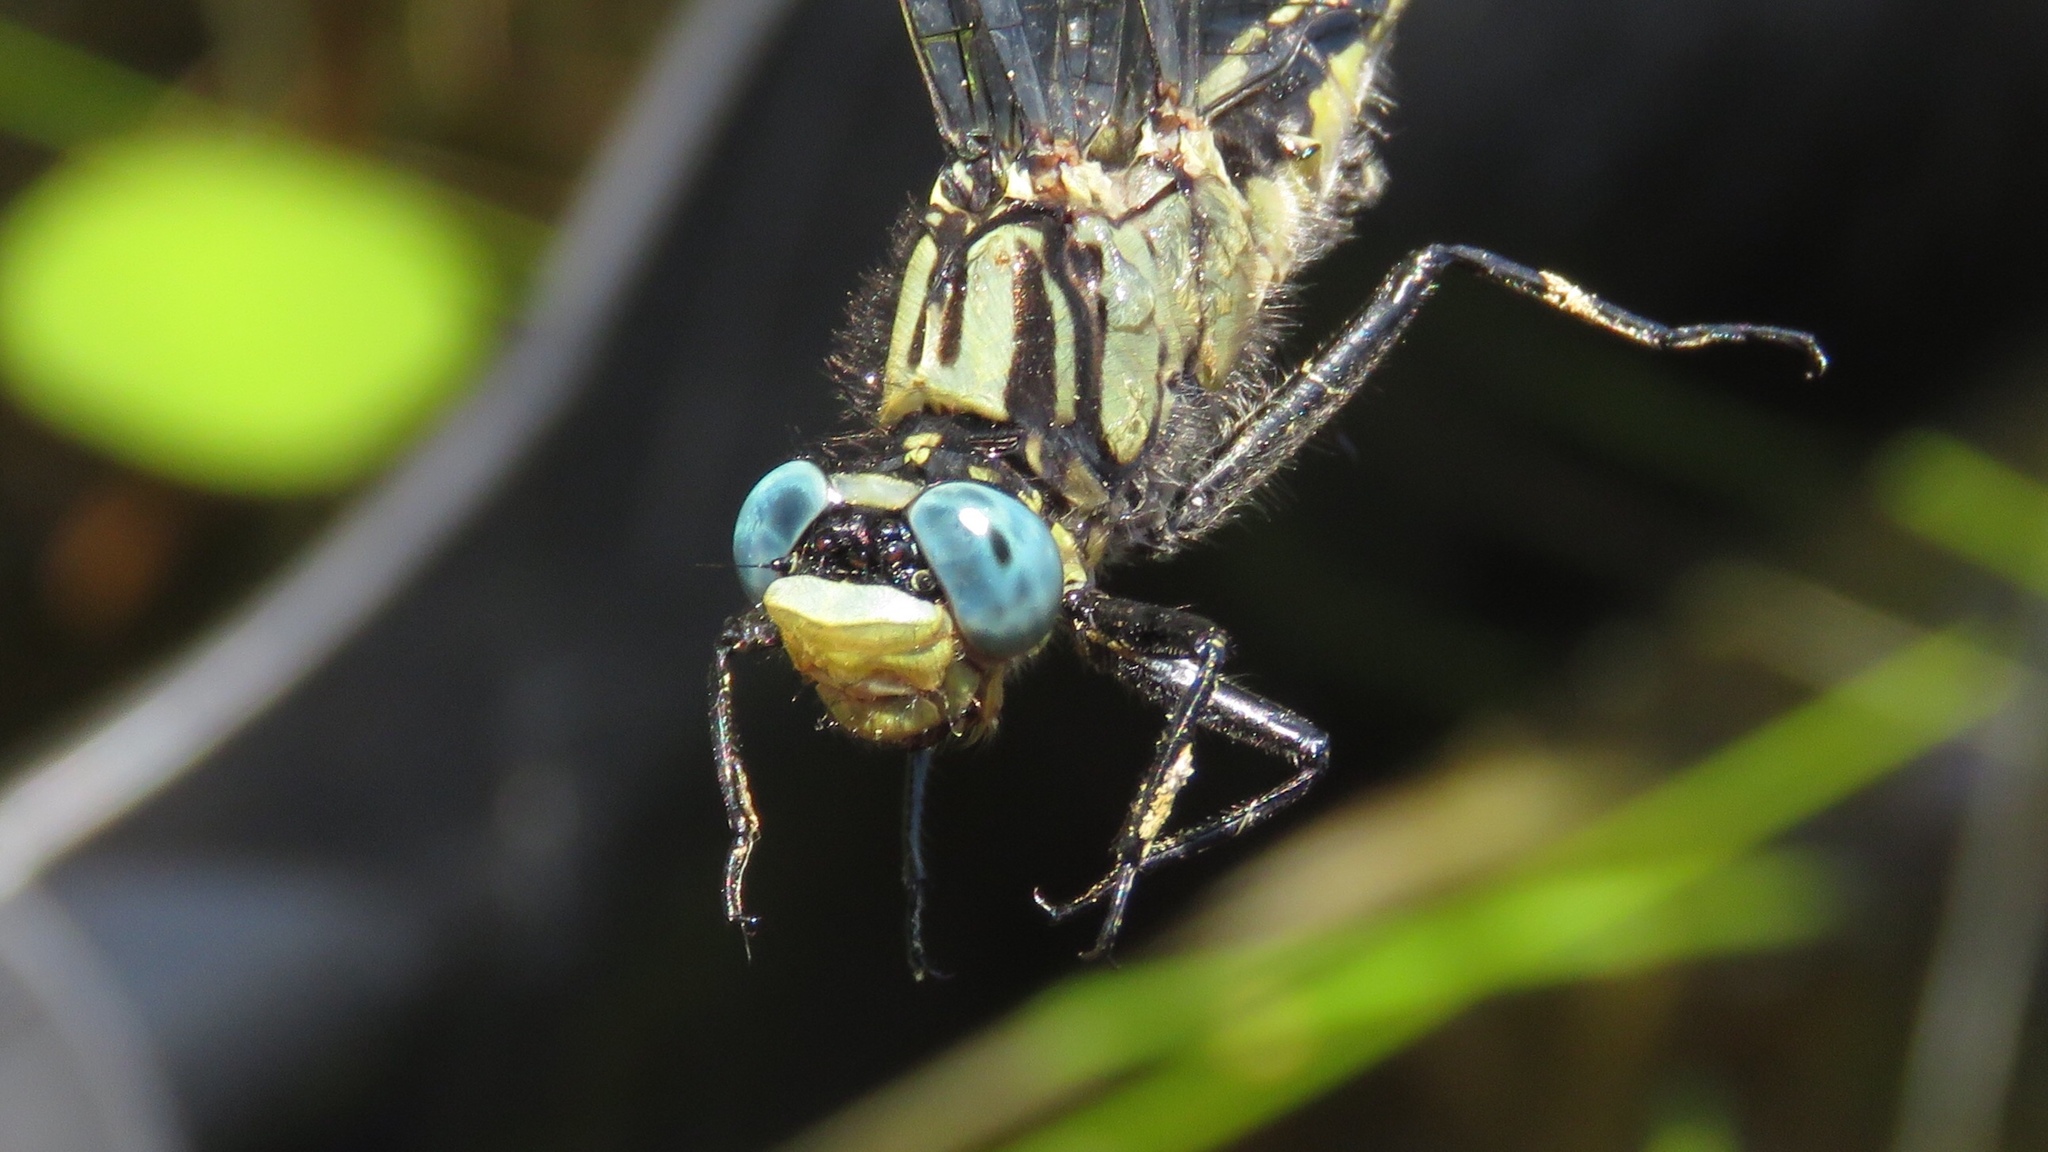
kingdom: Animalia
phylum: Arthropoda
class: Insecta
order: Odonata
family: Gomphidae
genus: Arigomphus
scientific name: Arigomphus furcifer
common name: Lilypad clubtail
